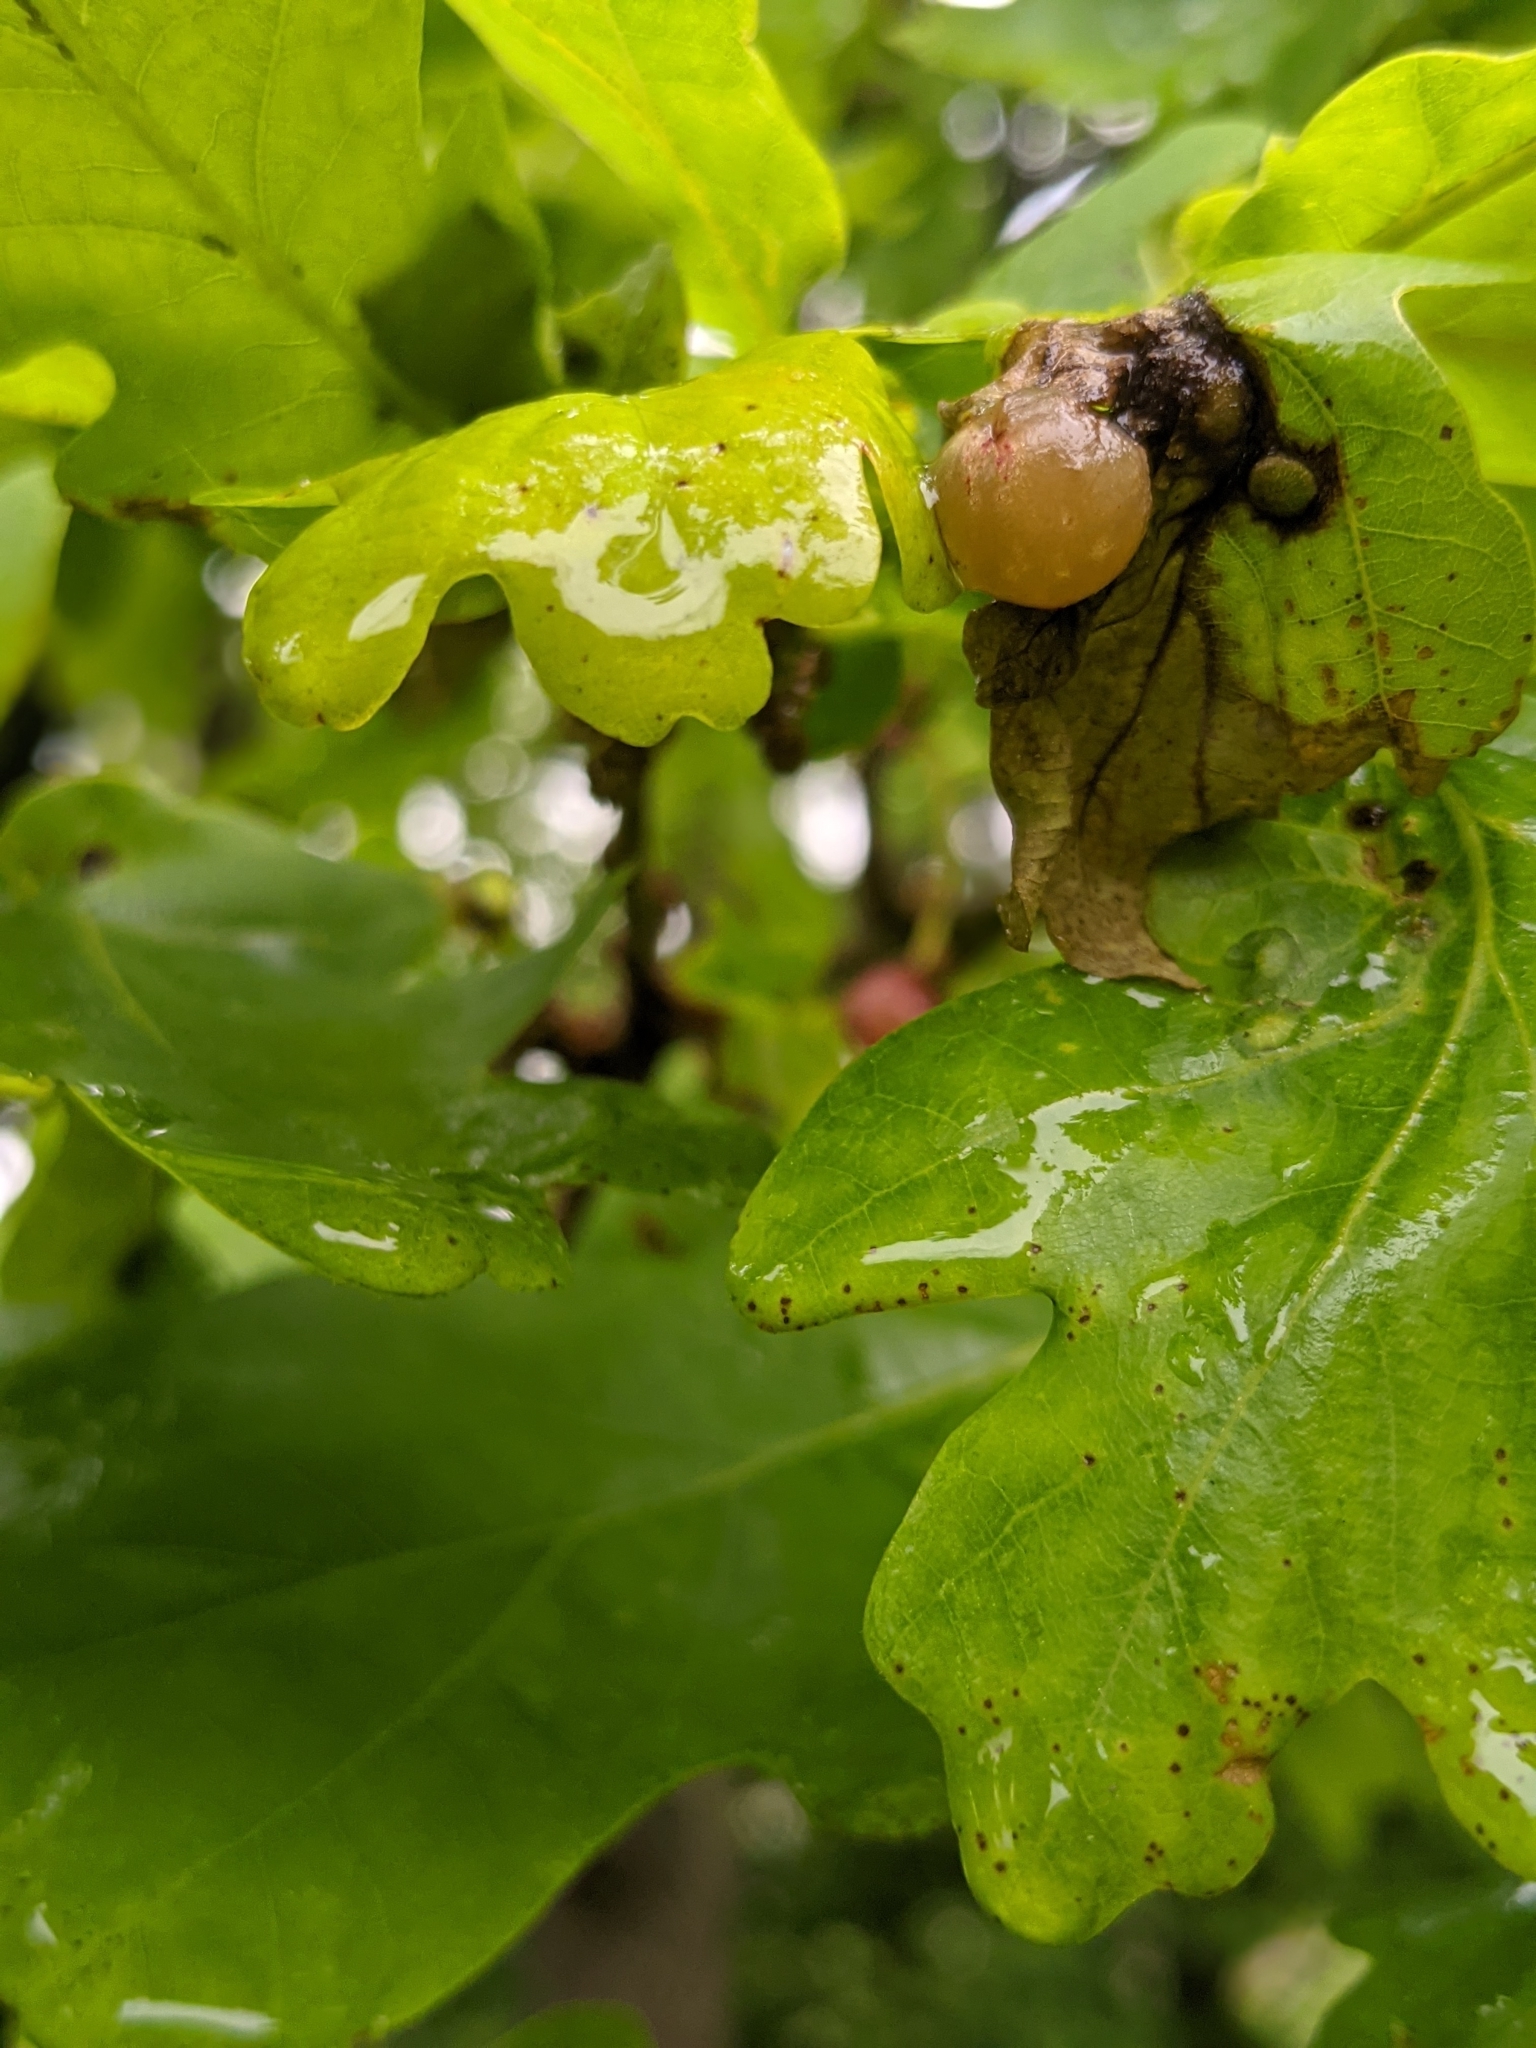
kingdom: Animalia
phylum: Arthropoda
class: Insecta
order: Hymenoptera
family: Cynipidae
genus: Neuroterus
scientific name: Neuroterus quercusbaccarum
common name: Common spangle gall
